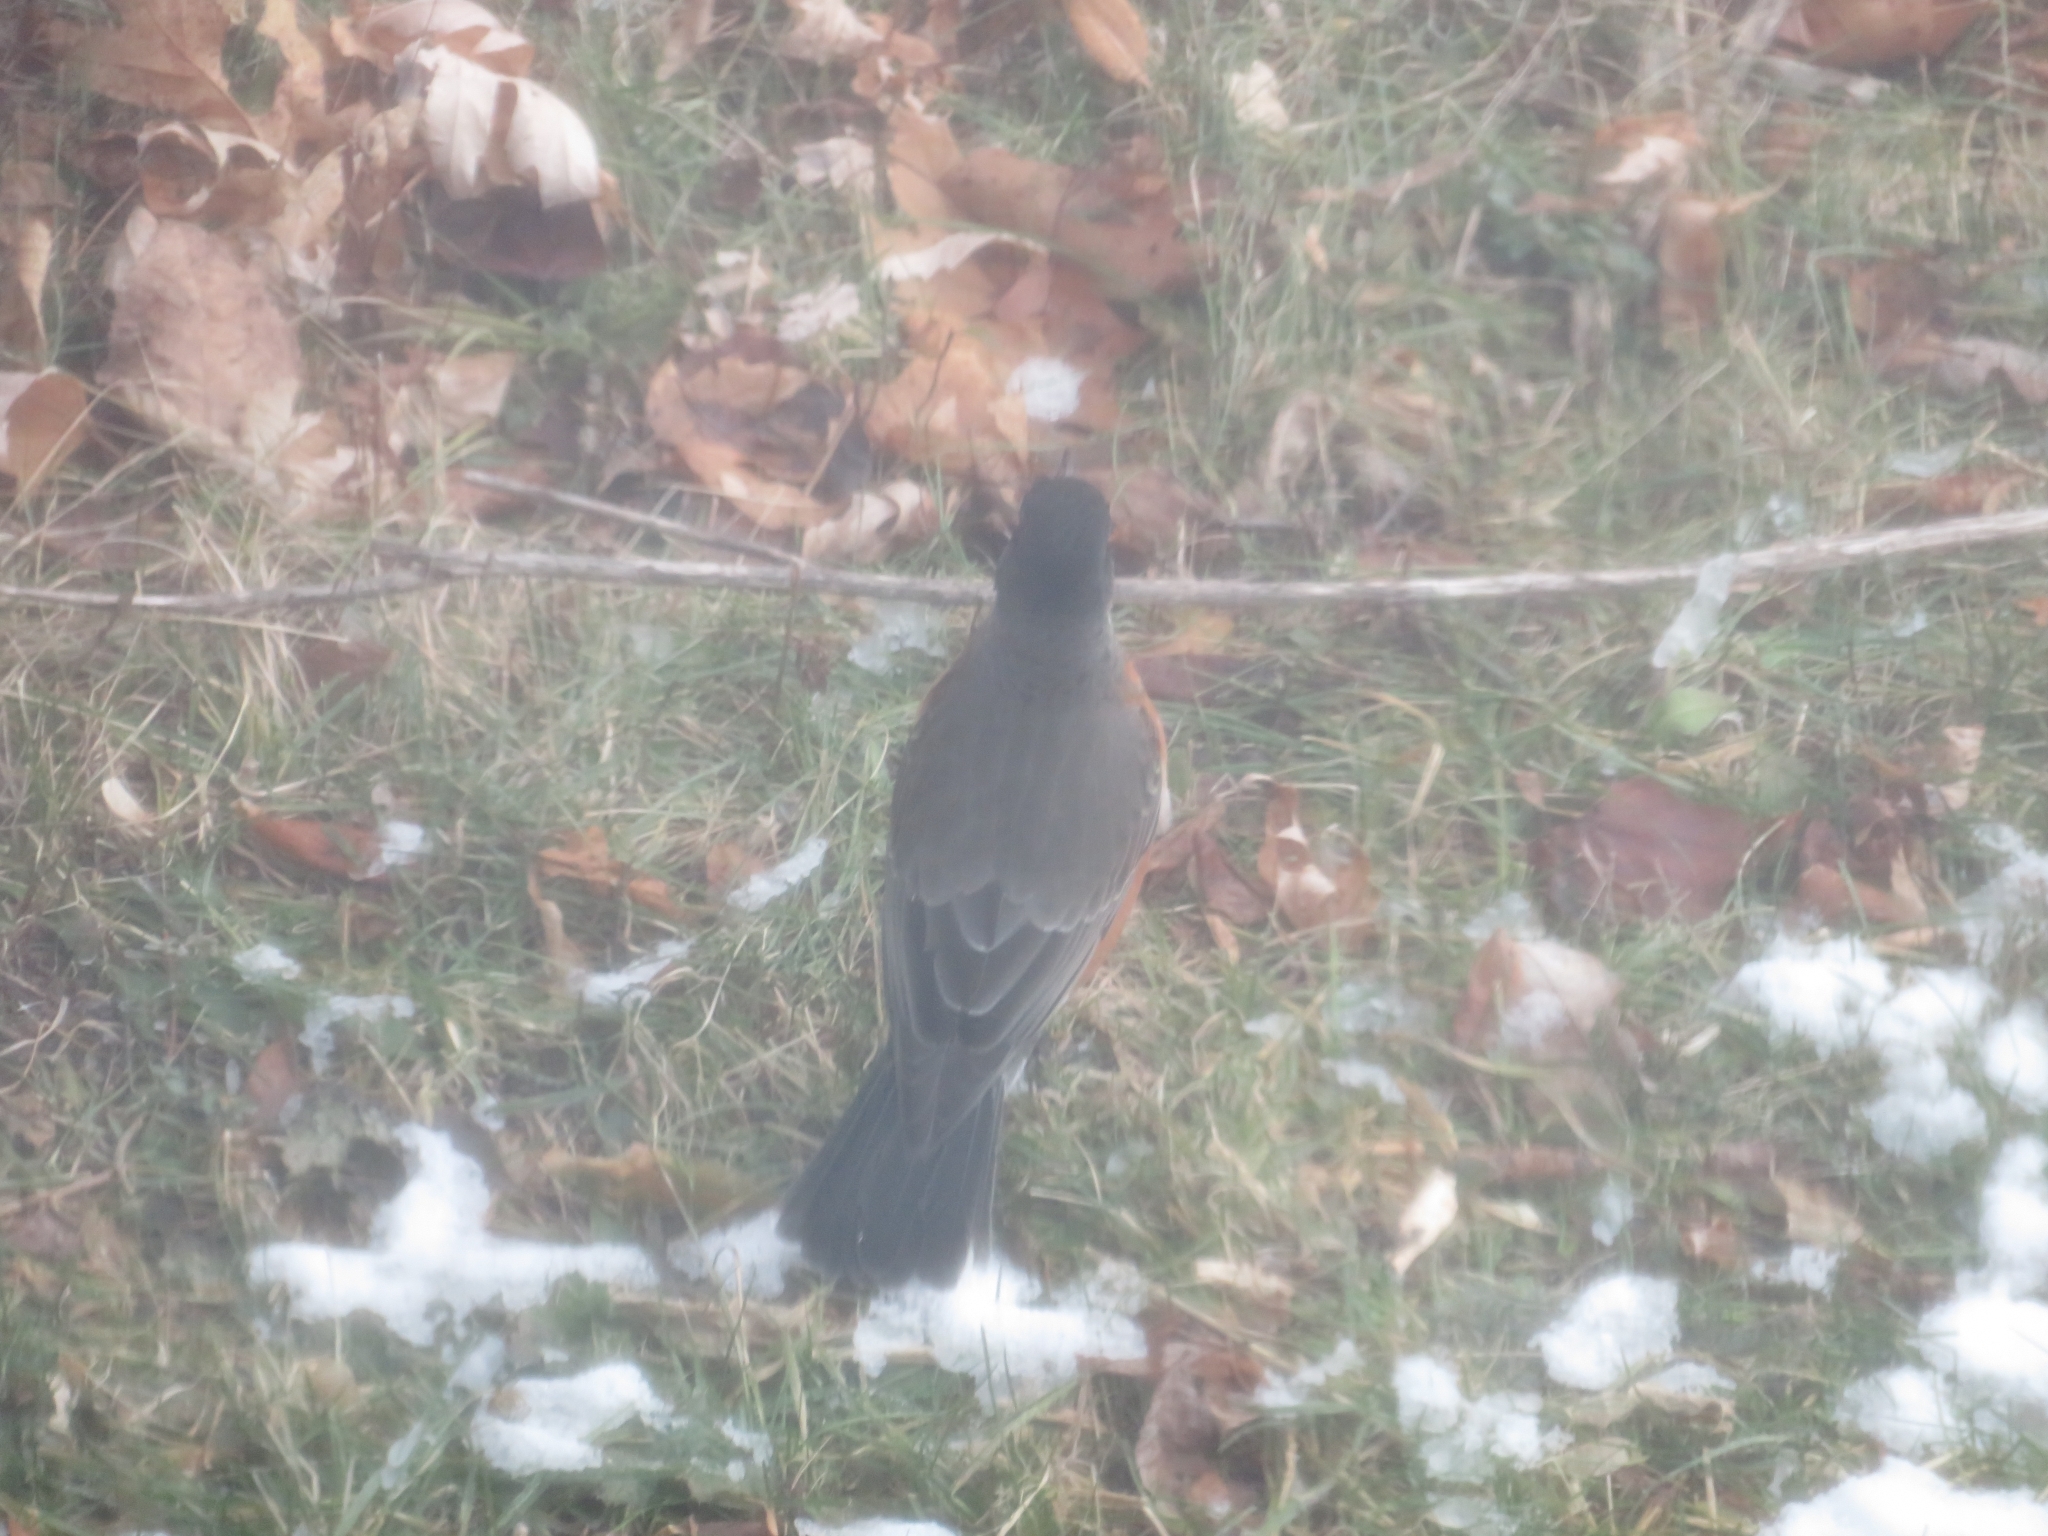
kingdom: Animalia
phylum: Chordata
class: Aves
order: Passeriformes
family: Turdidae
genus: Turdus
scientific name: Turdus migratorius
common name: American robin
